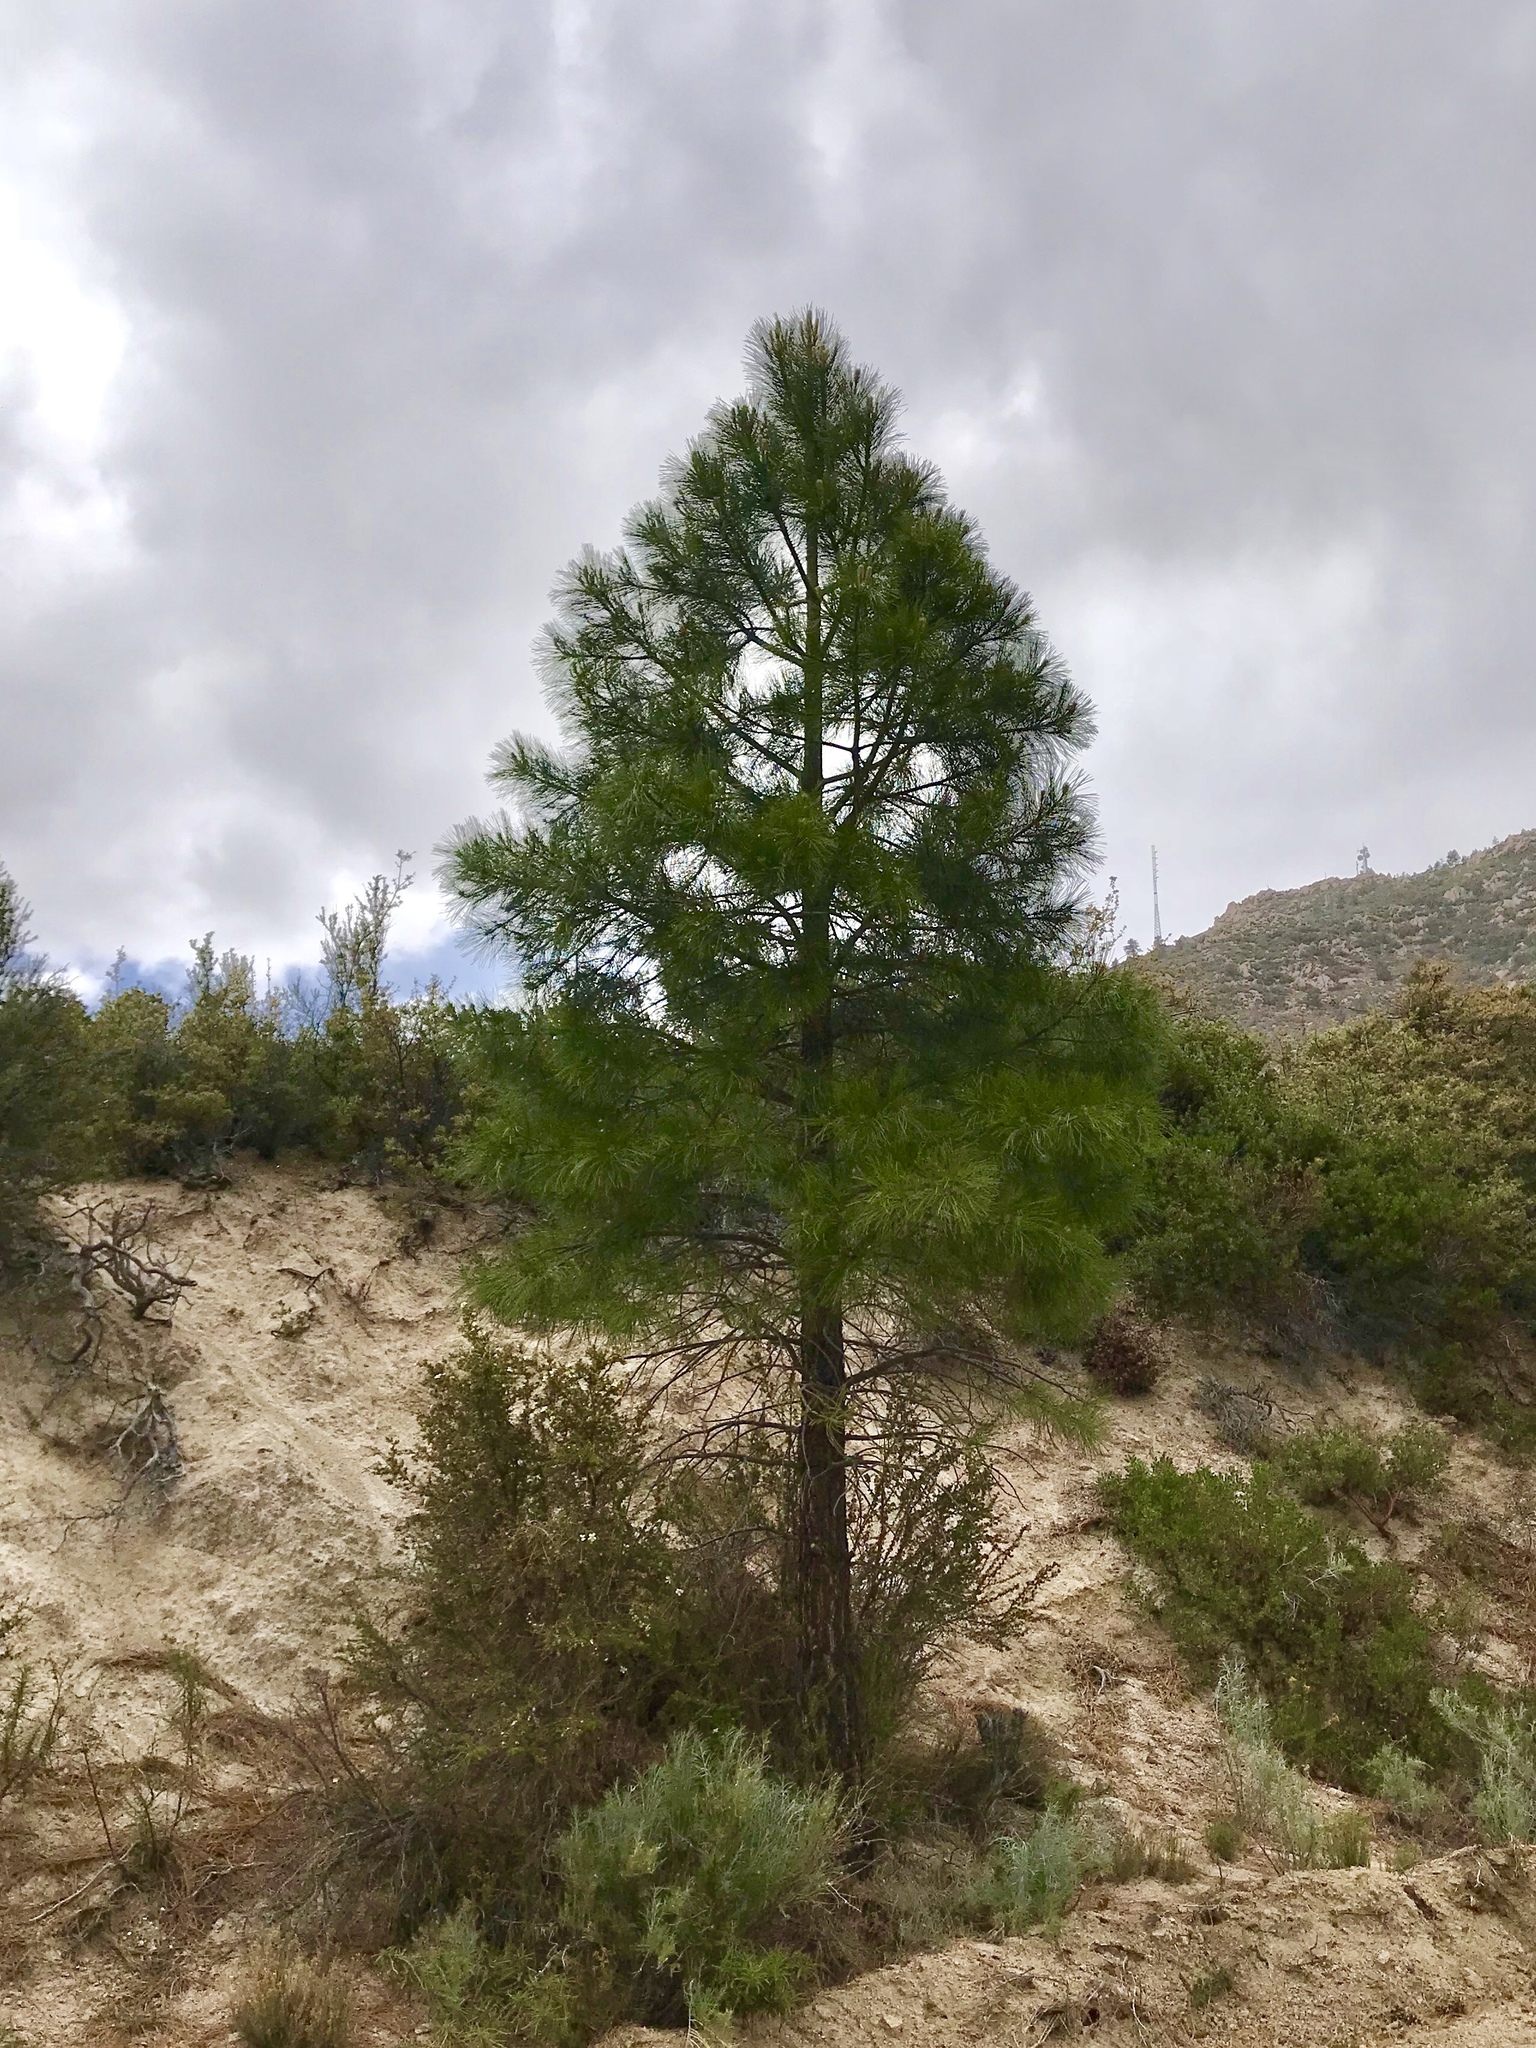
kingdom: Plantae
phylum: Tracheophyta
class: Pinopsida
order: Pinales
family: Pinaceae
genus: Pinus
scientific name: Pinus ponderosa
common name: Western yellow-pine
